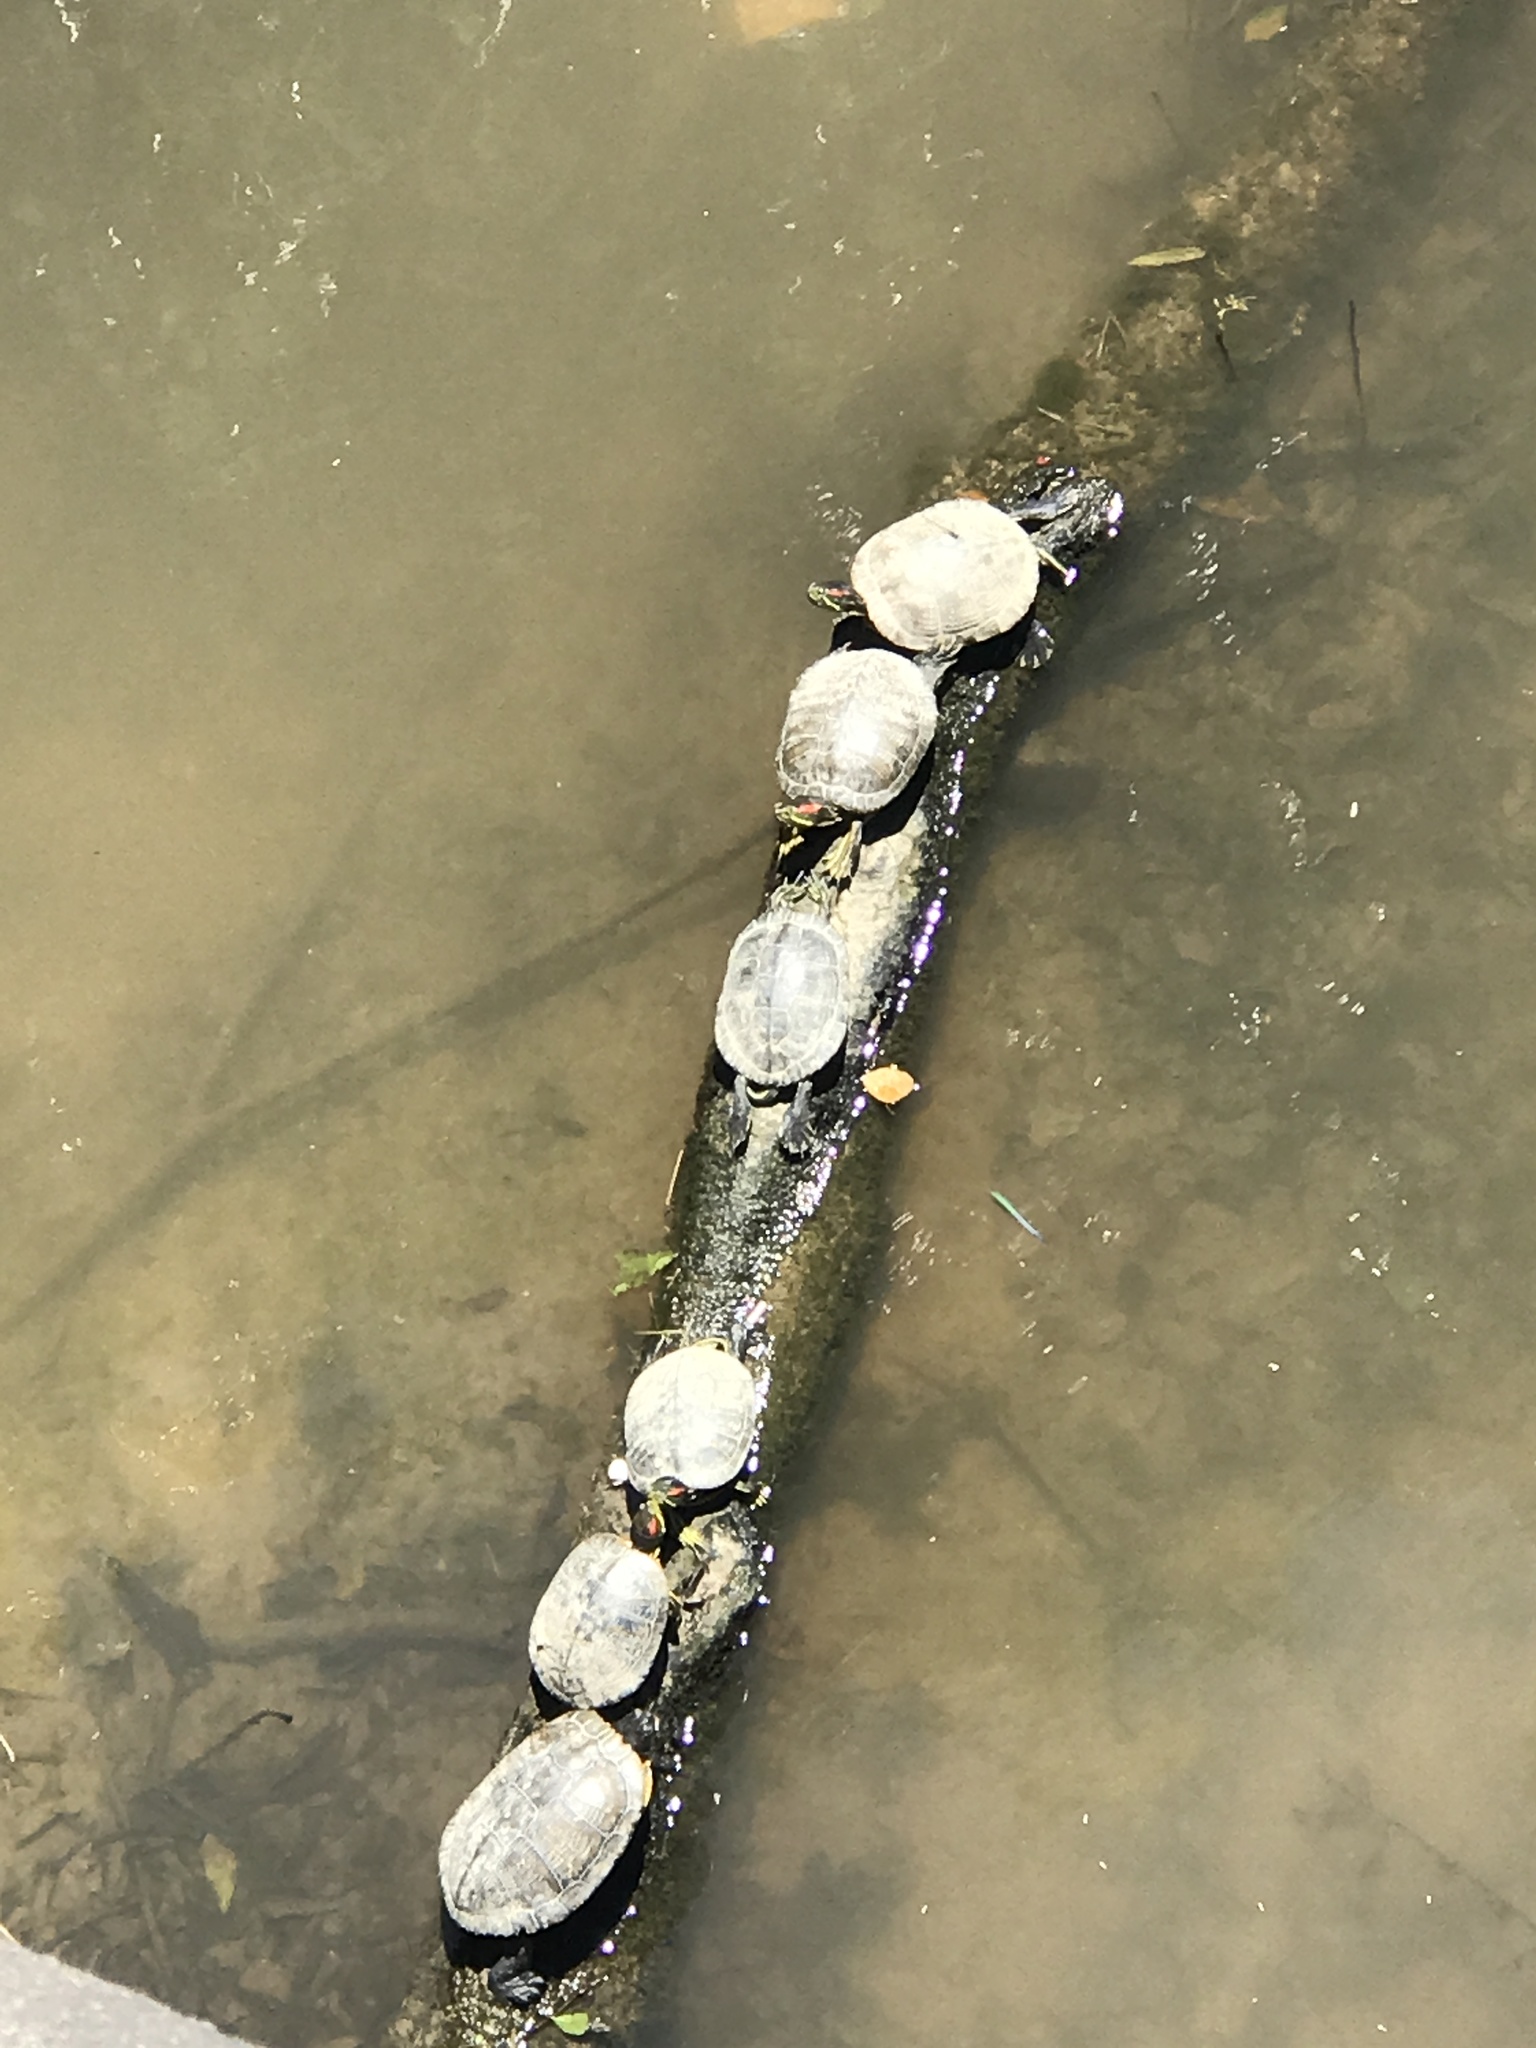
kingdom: Animalia
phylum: Chordata
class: Testudines
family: Emydidae
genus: Trachemys
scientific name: Trachemys scripta
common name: Slider
